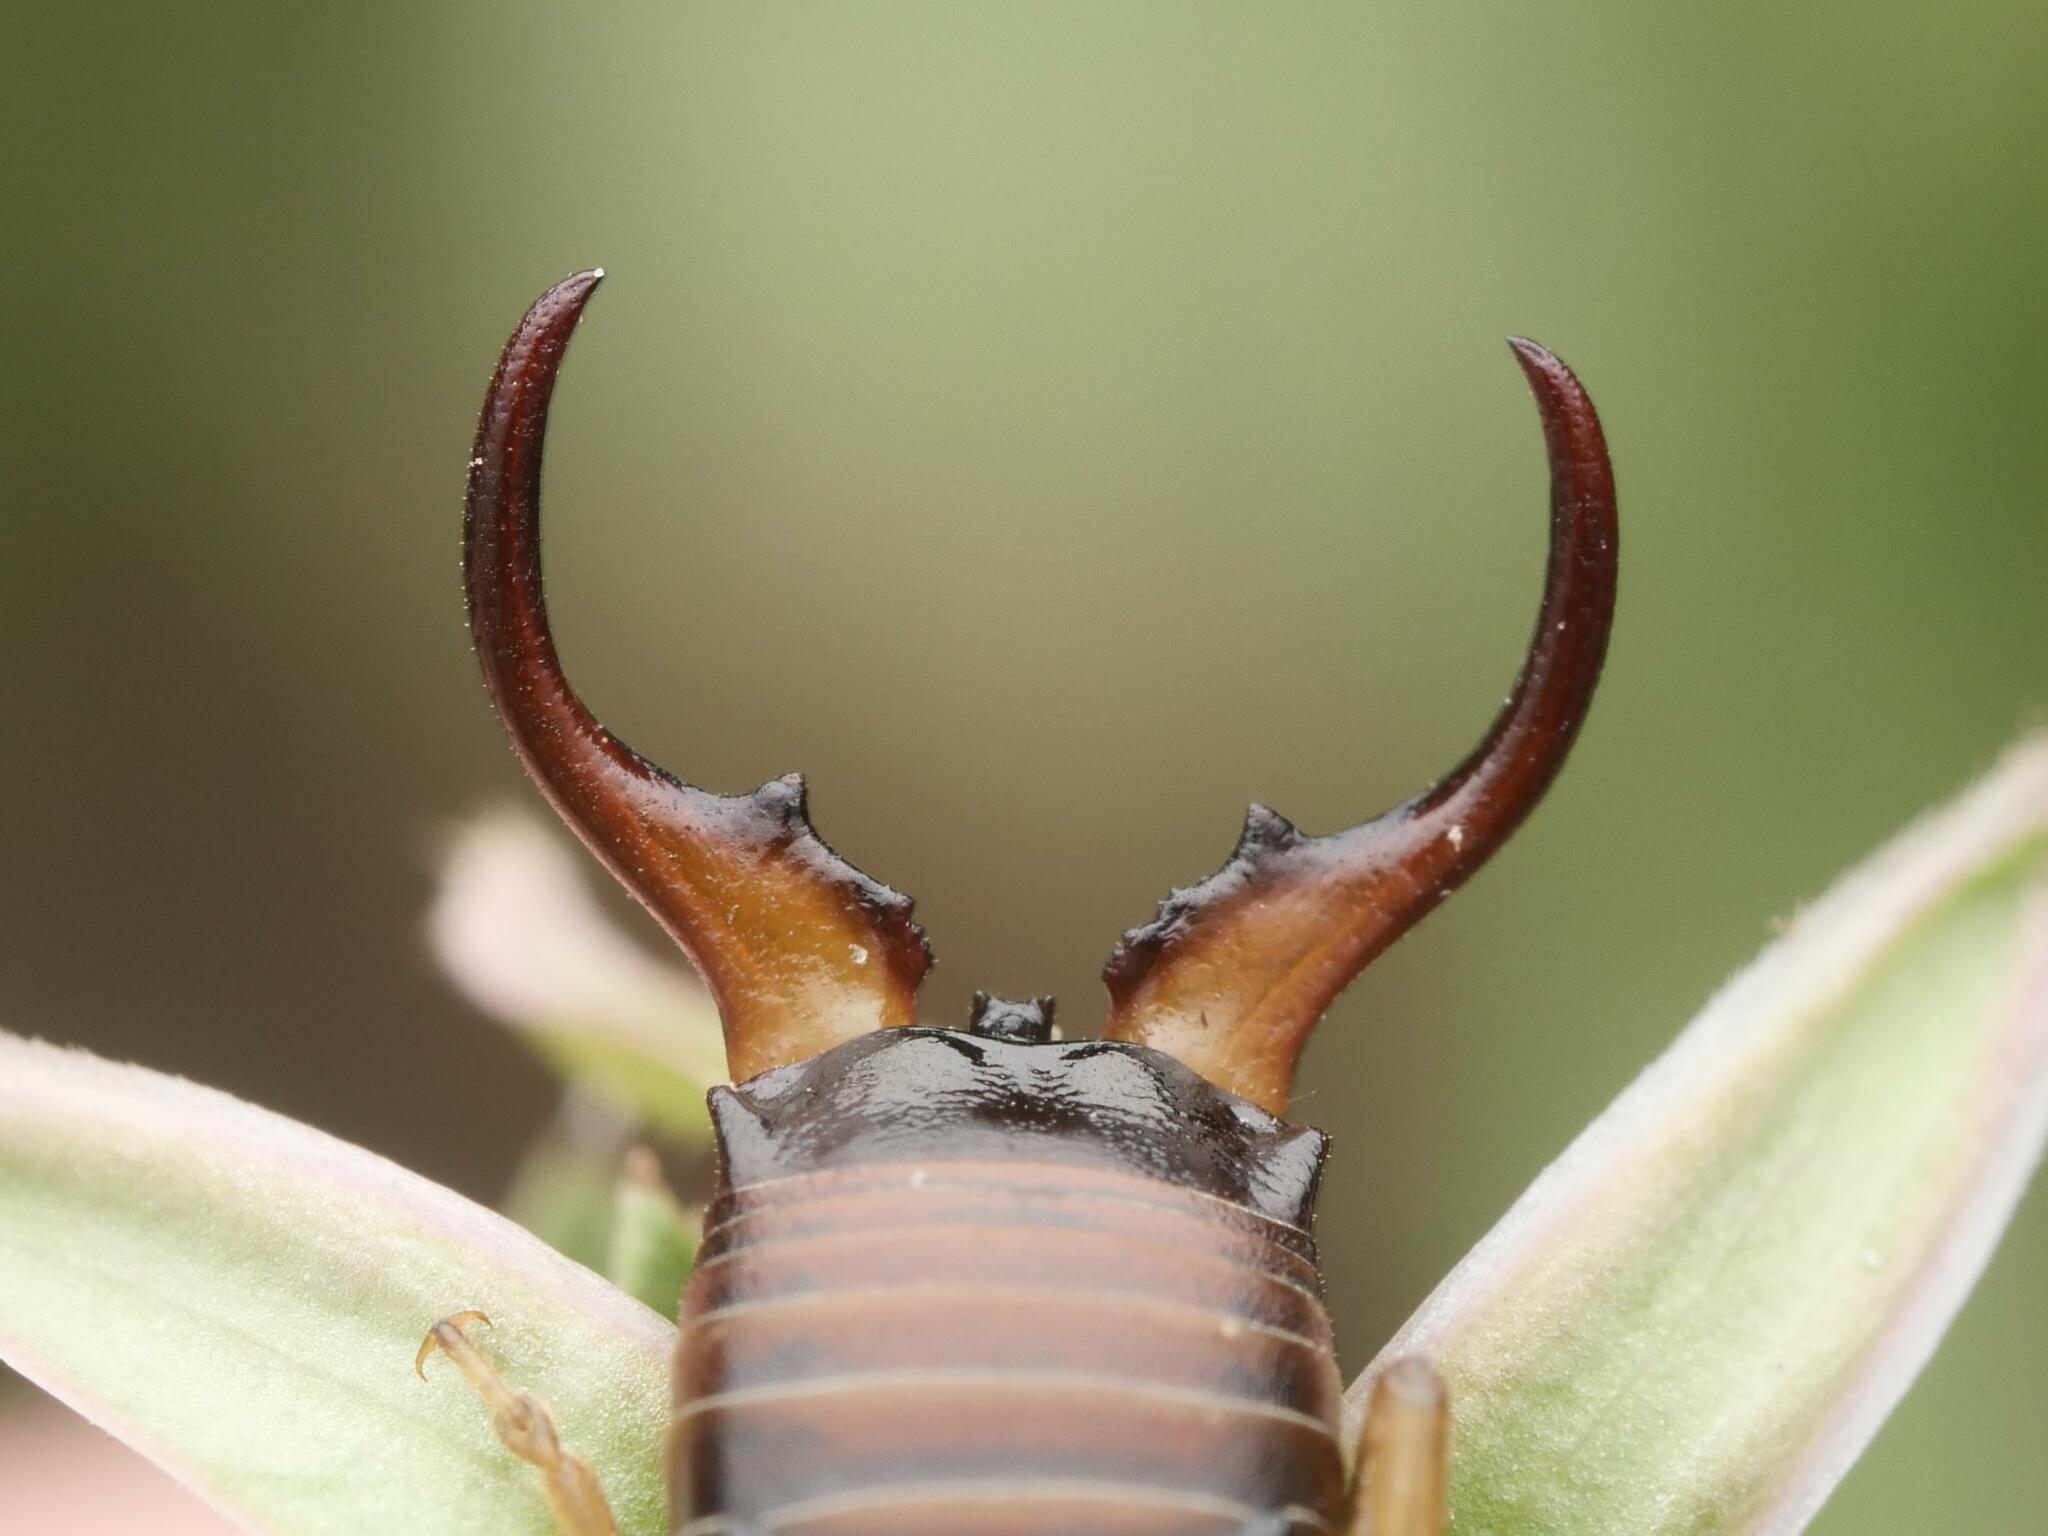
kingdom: Animalia
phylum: Arthropoda
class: Insecta
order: Dermaptera
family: Forficulidae
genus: Forficula
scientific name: Forficula
